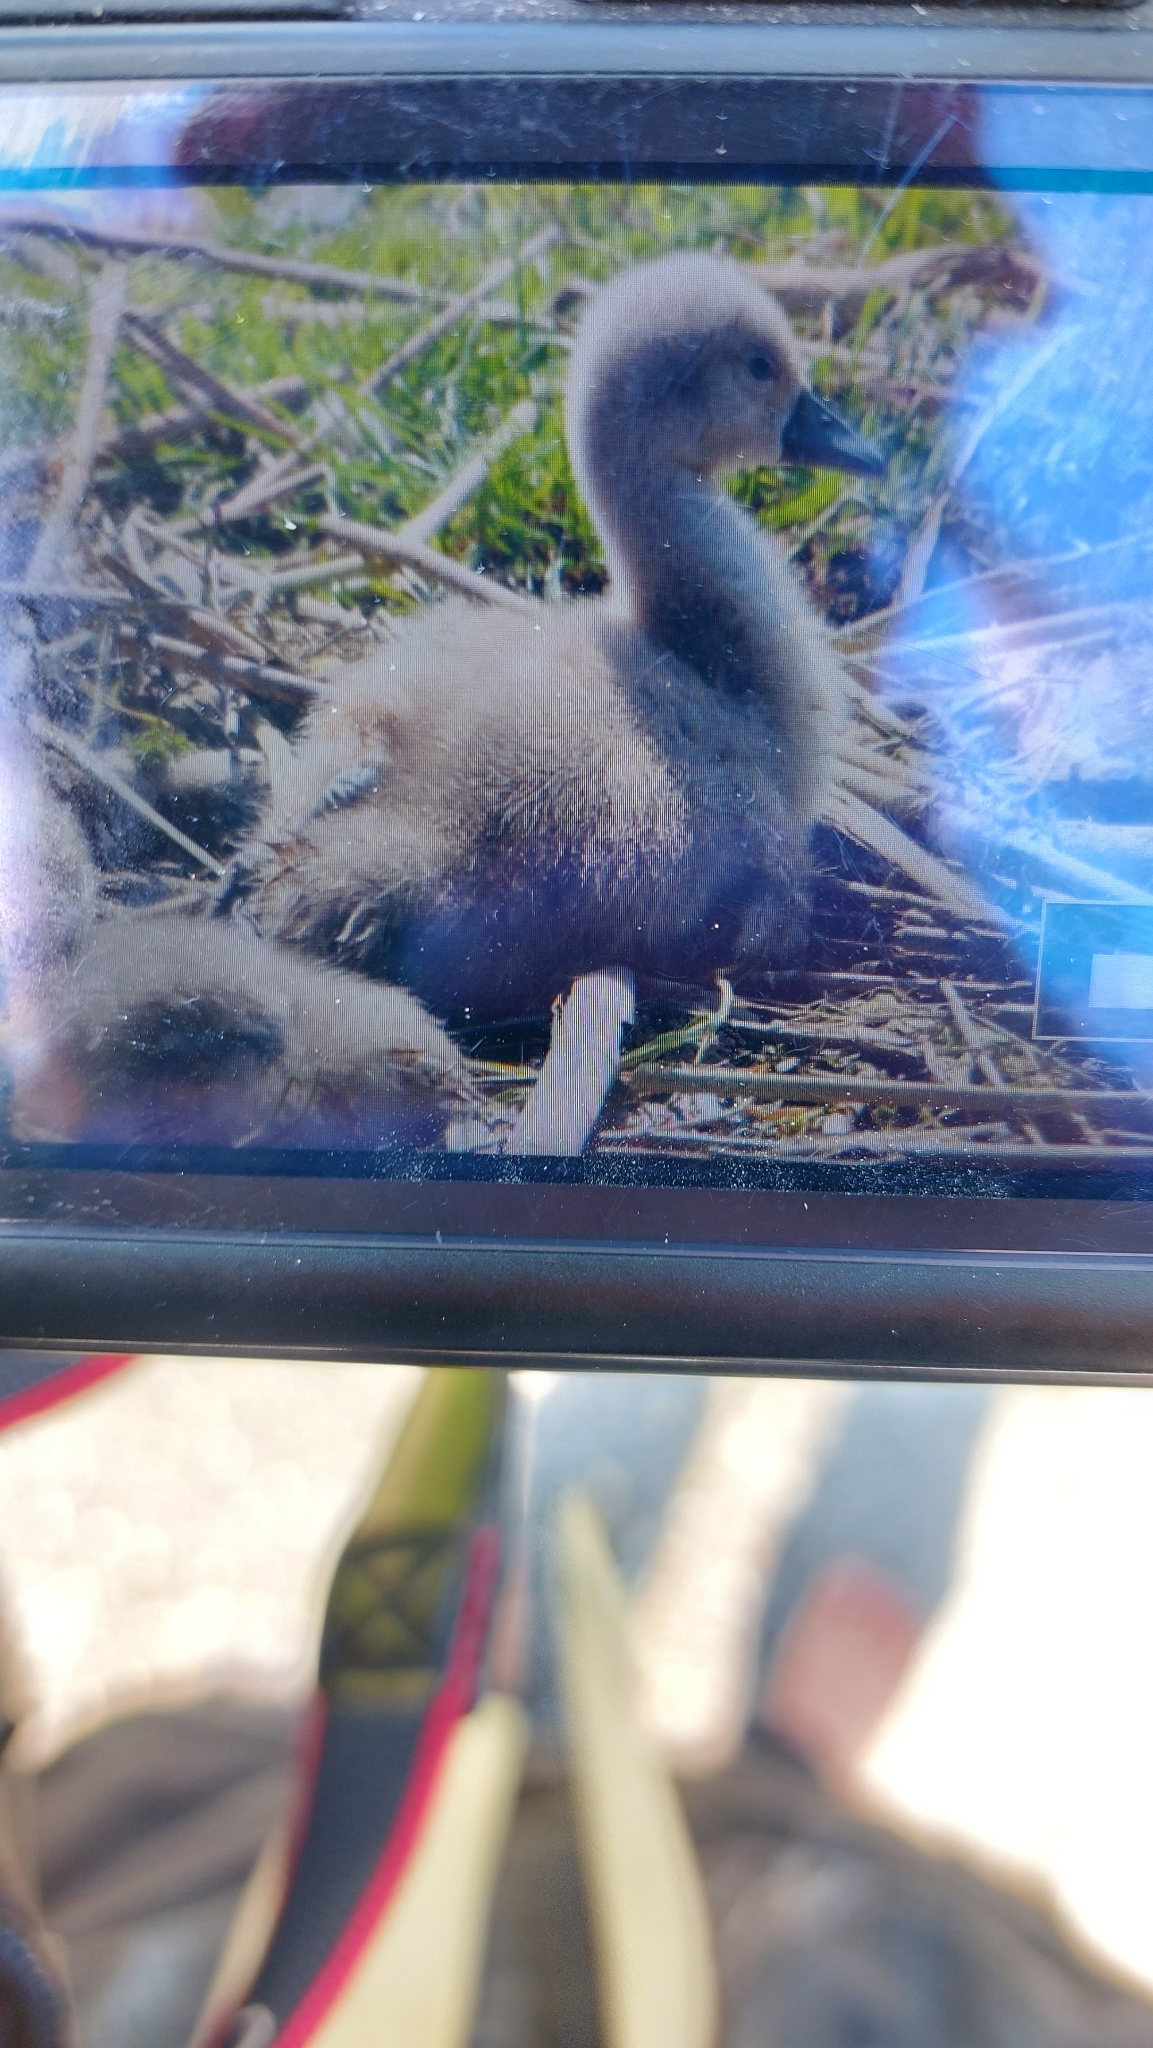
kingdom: Animalia
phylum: Chordata
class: Aves
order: Anseriformes
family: Anatidae
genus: Cygnus
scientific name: Cygnus olor
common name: Mute swan
